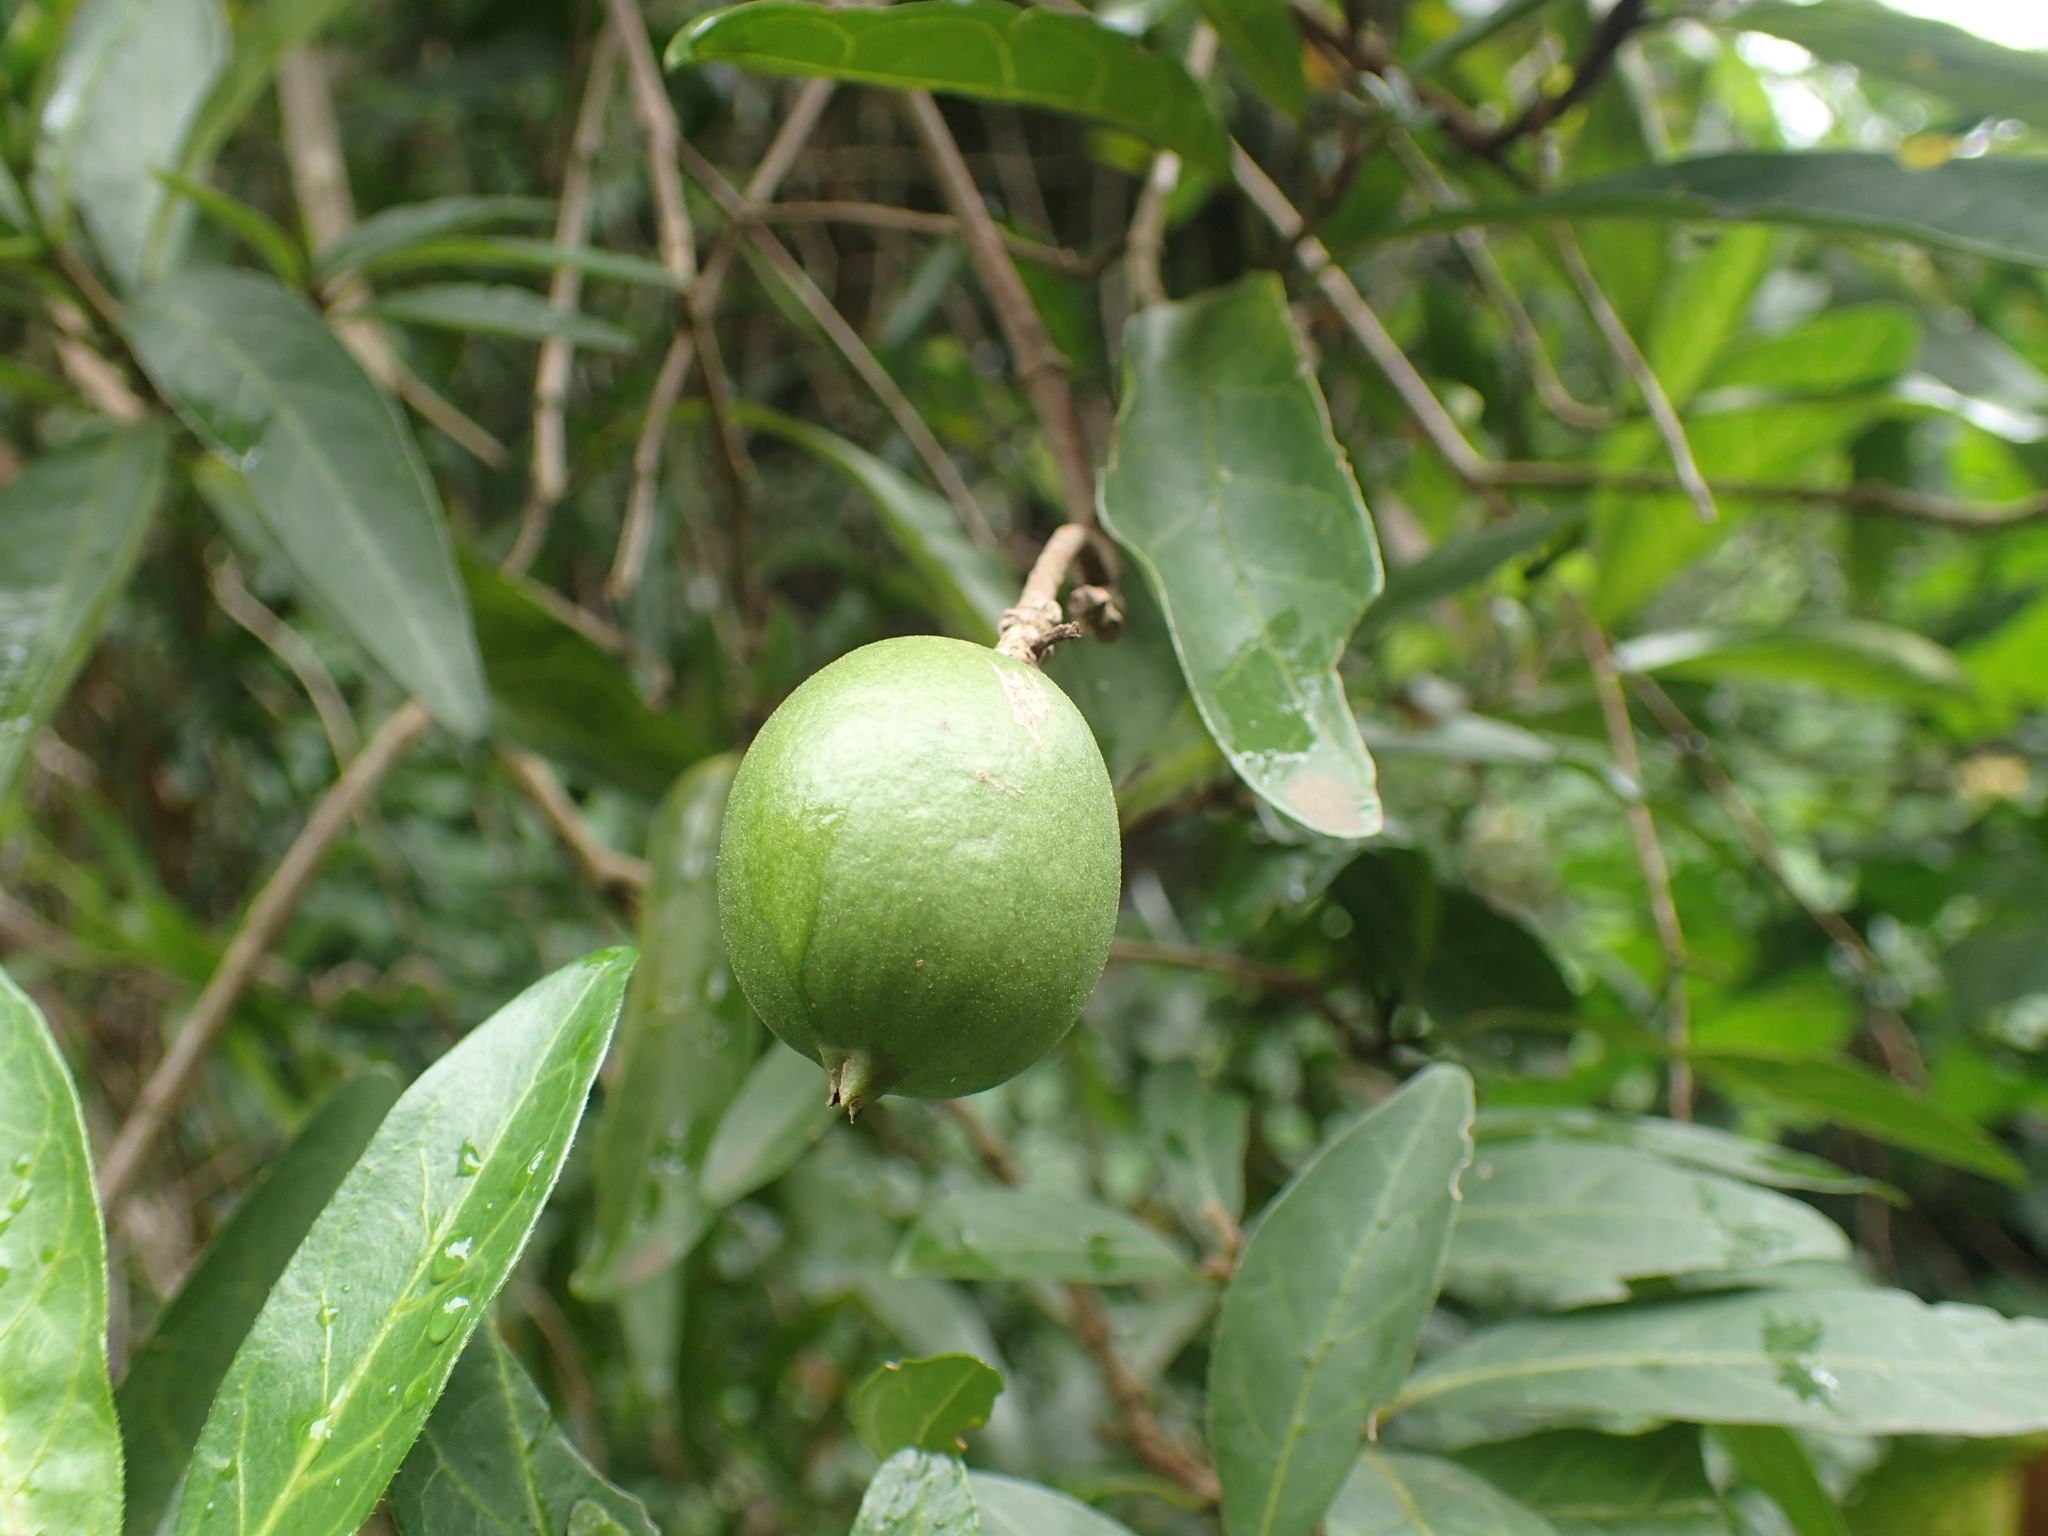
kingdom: Plantae
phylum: Tracheophyta
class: Magnoliopsida
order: Gentianales
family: Rubiaceae
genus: Rothmannia
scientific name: Rothmannia globosa
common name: September bells
